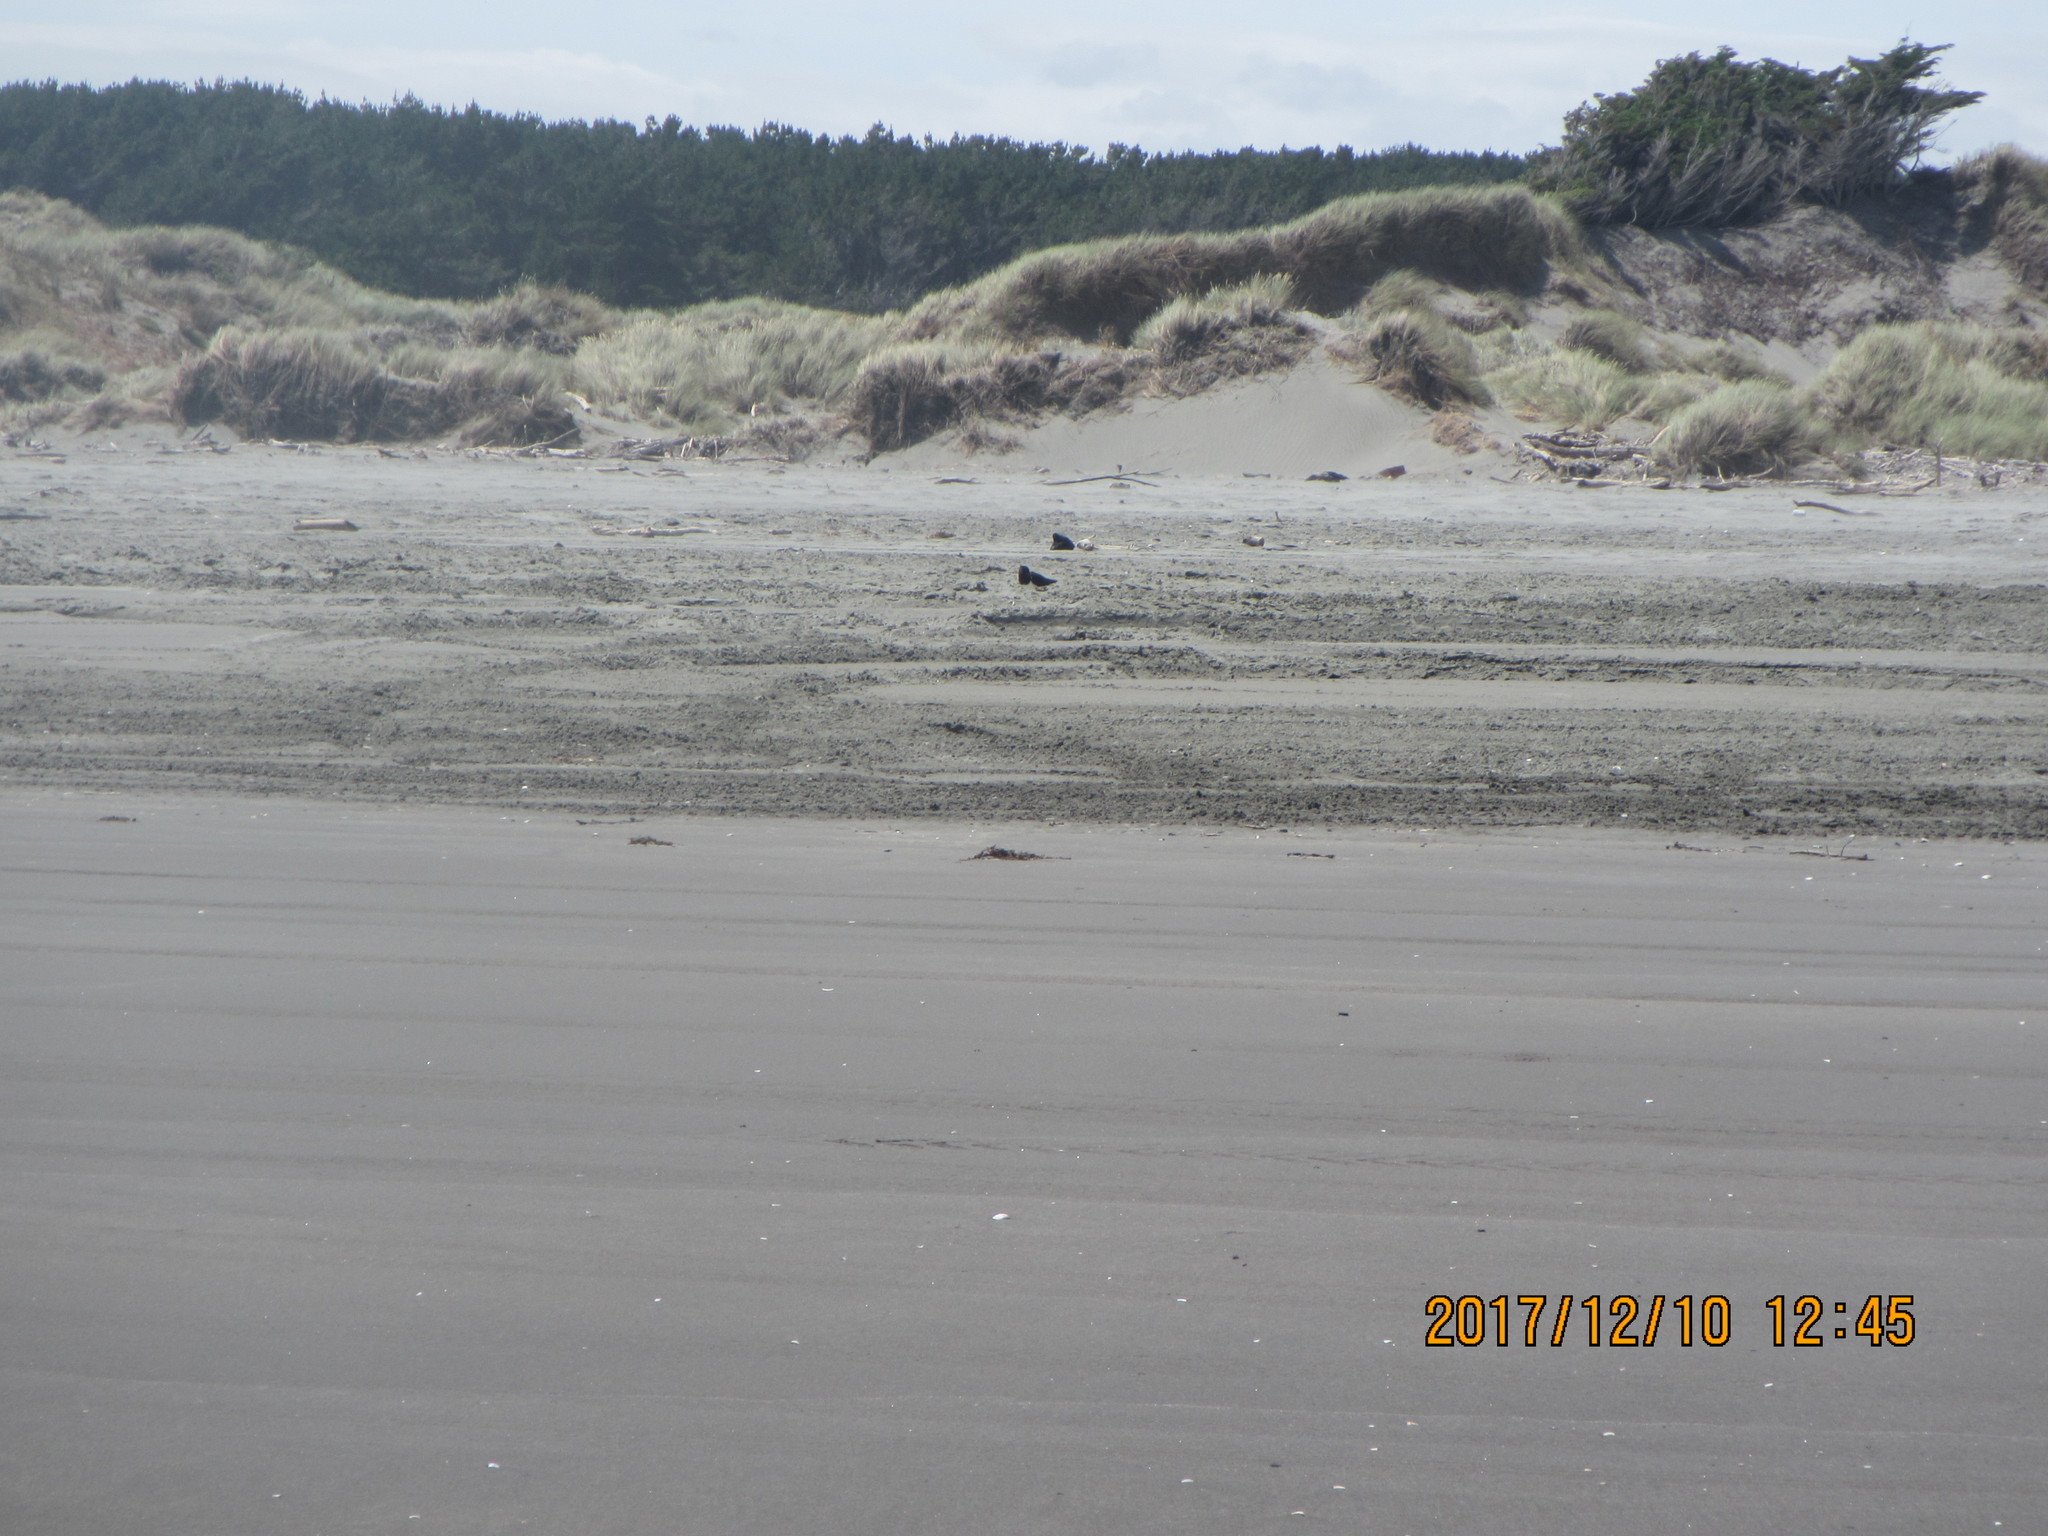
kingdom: Animalia
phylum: Chordata
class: Aves
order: Charadriiformes
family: Haematopodidae
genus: Haematopus
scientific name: Haematopus unicolor
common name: Variable oystercatcher
